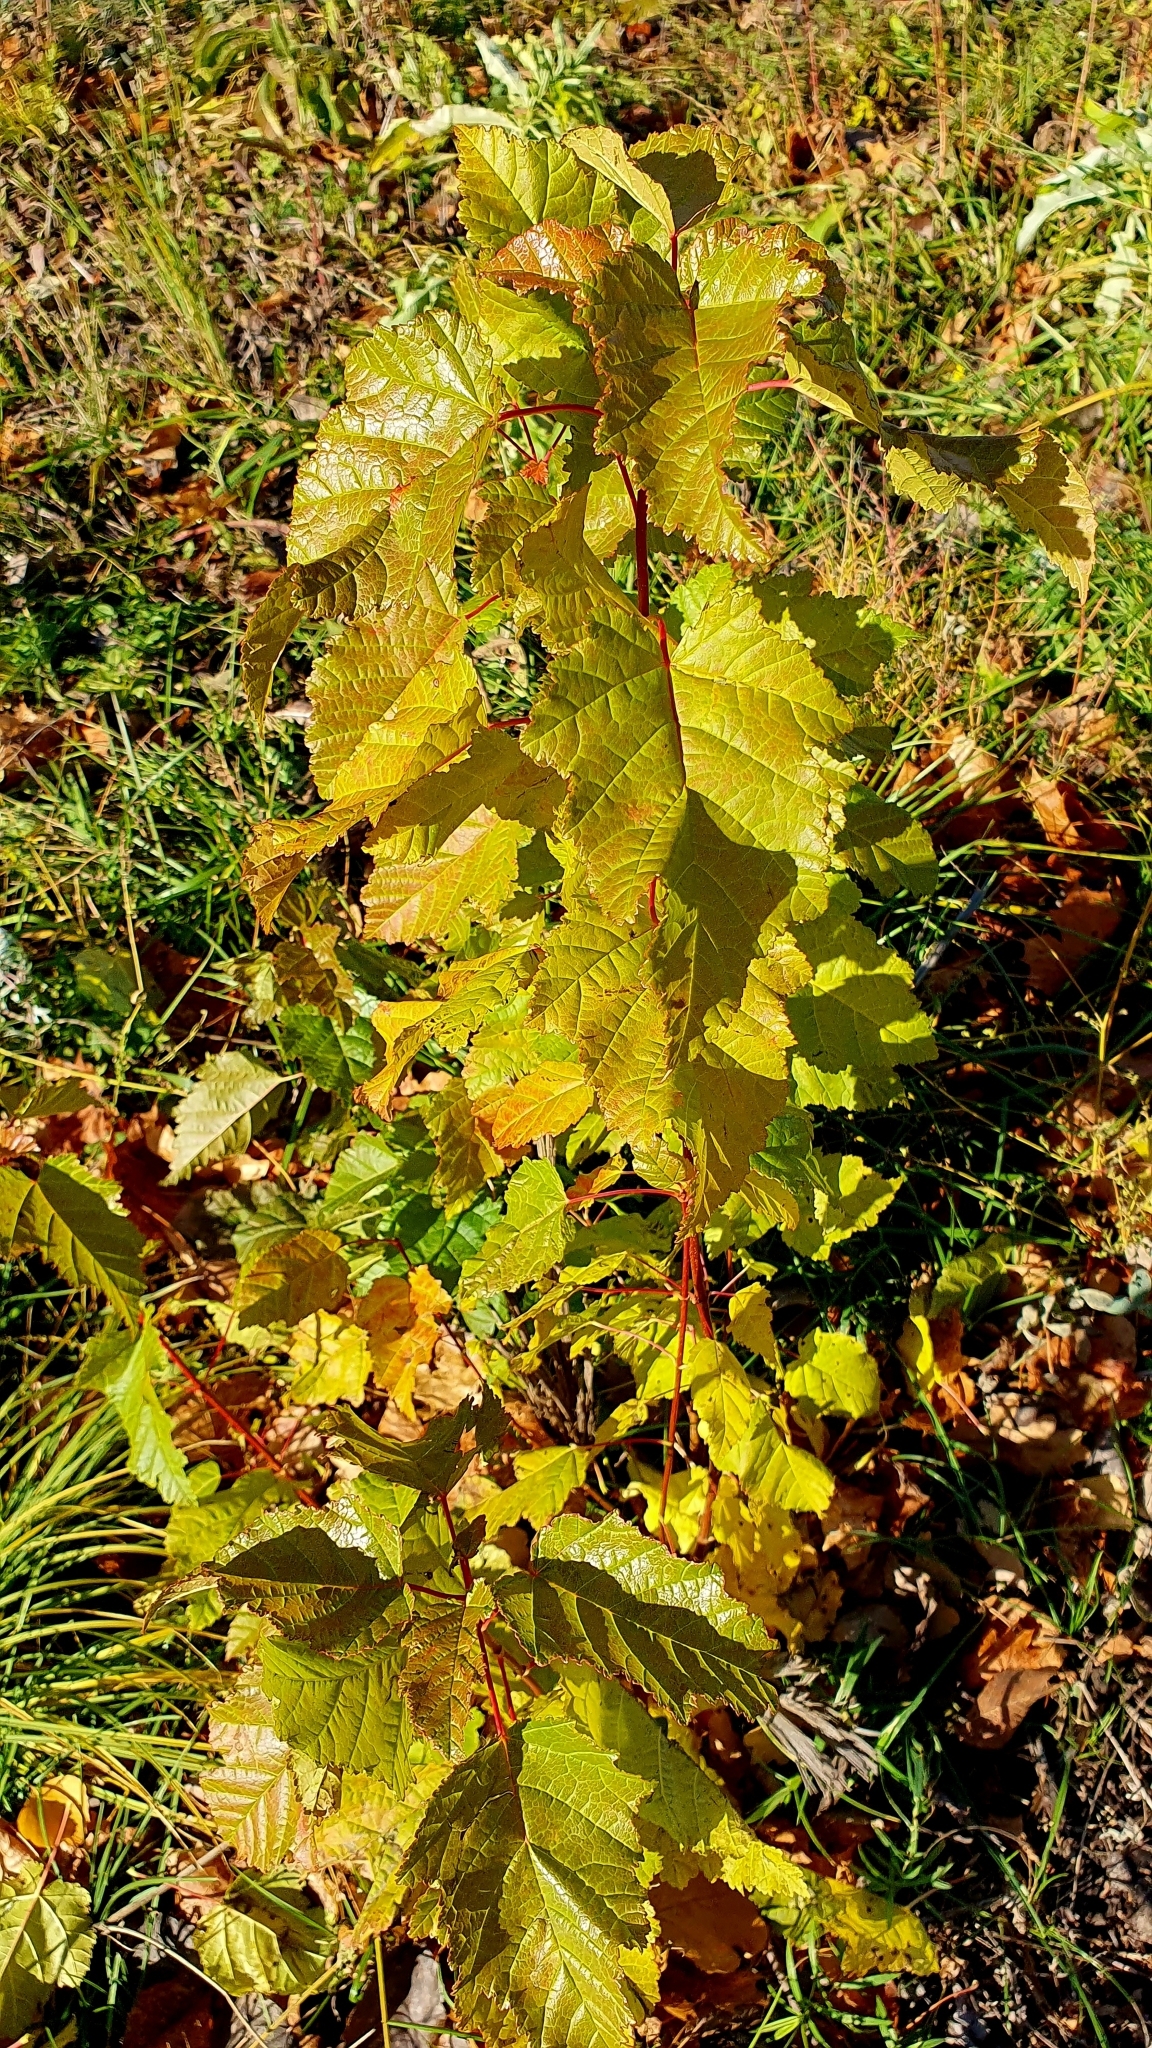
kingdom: Plantae
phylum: Tracheophyta
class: Magnoliopsida
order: Sapindales
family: Sapindaceae
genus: Acer
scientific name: Acer tataricum
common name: Tartar maple
